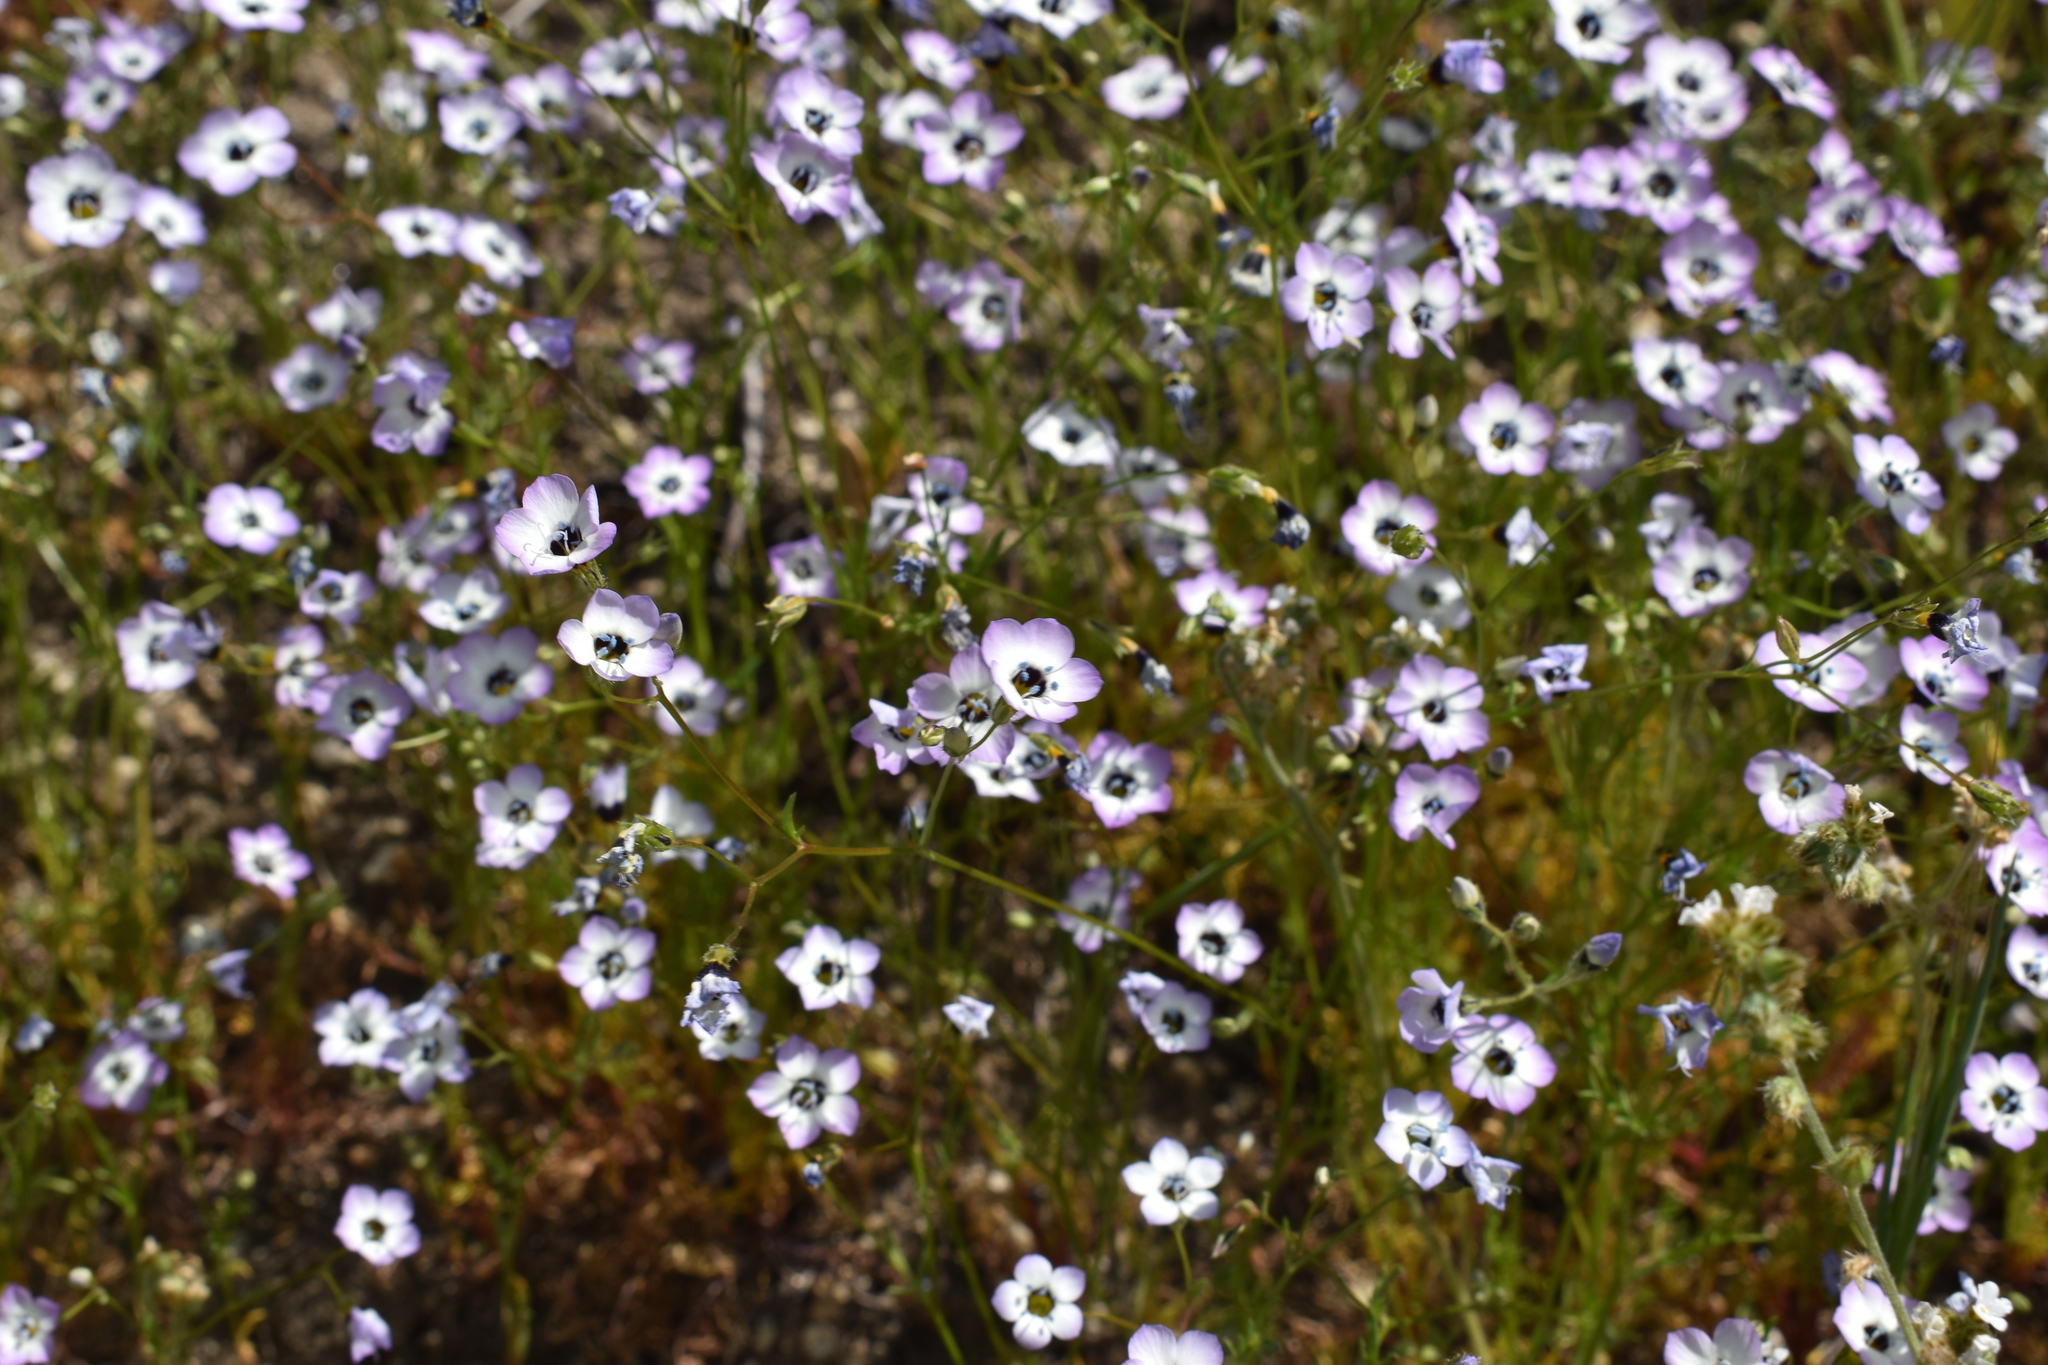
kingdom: Plantae
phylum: Tracheophyta
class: Magnoliopsida
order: Ericales
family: Polemoniaceae
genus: Gilia
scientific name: Gilia tricolor
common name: Bird's-eyes
